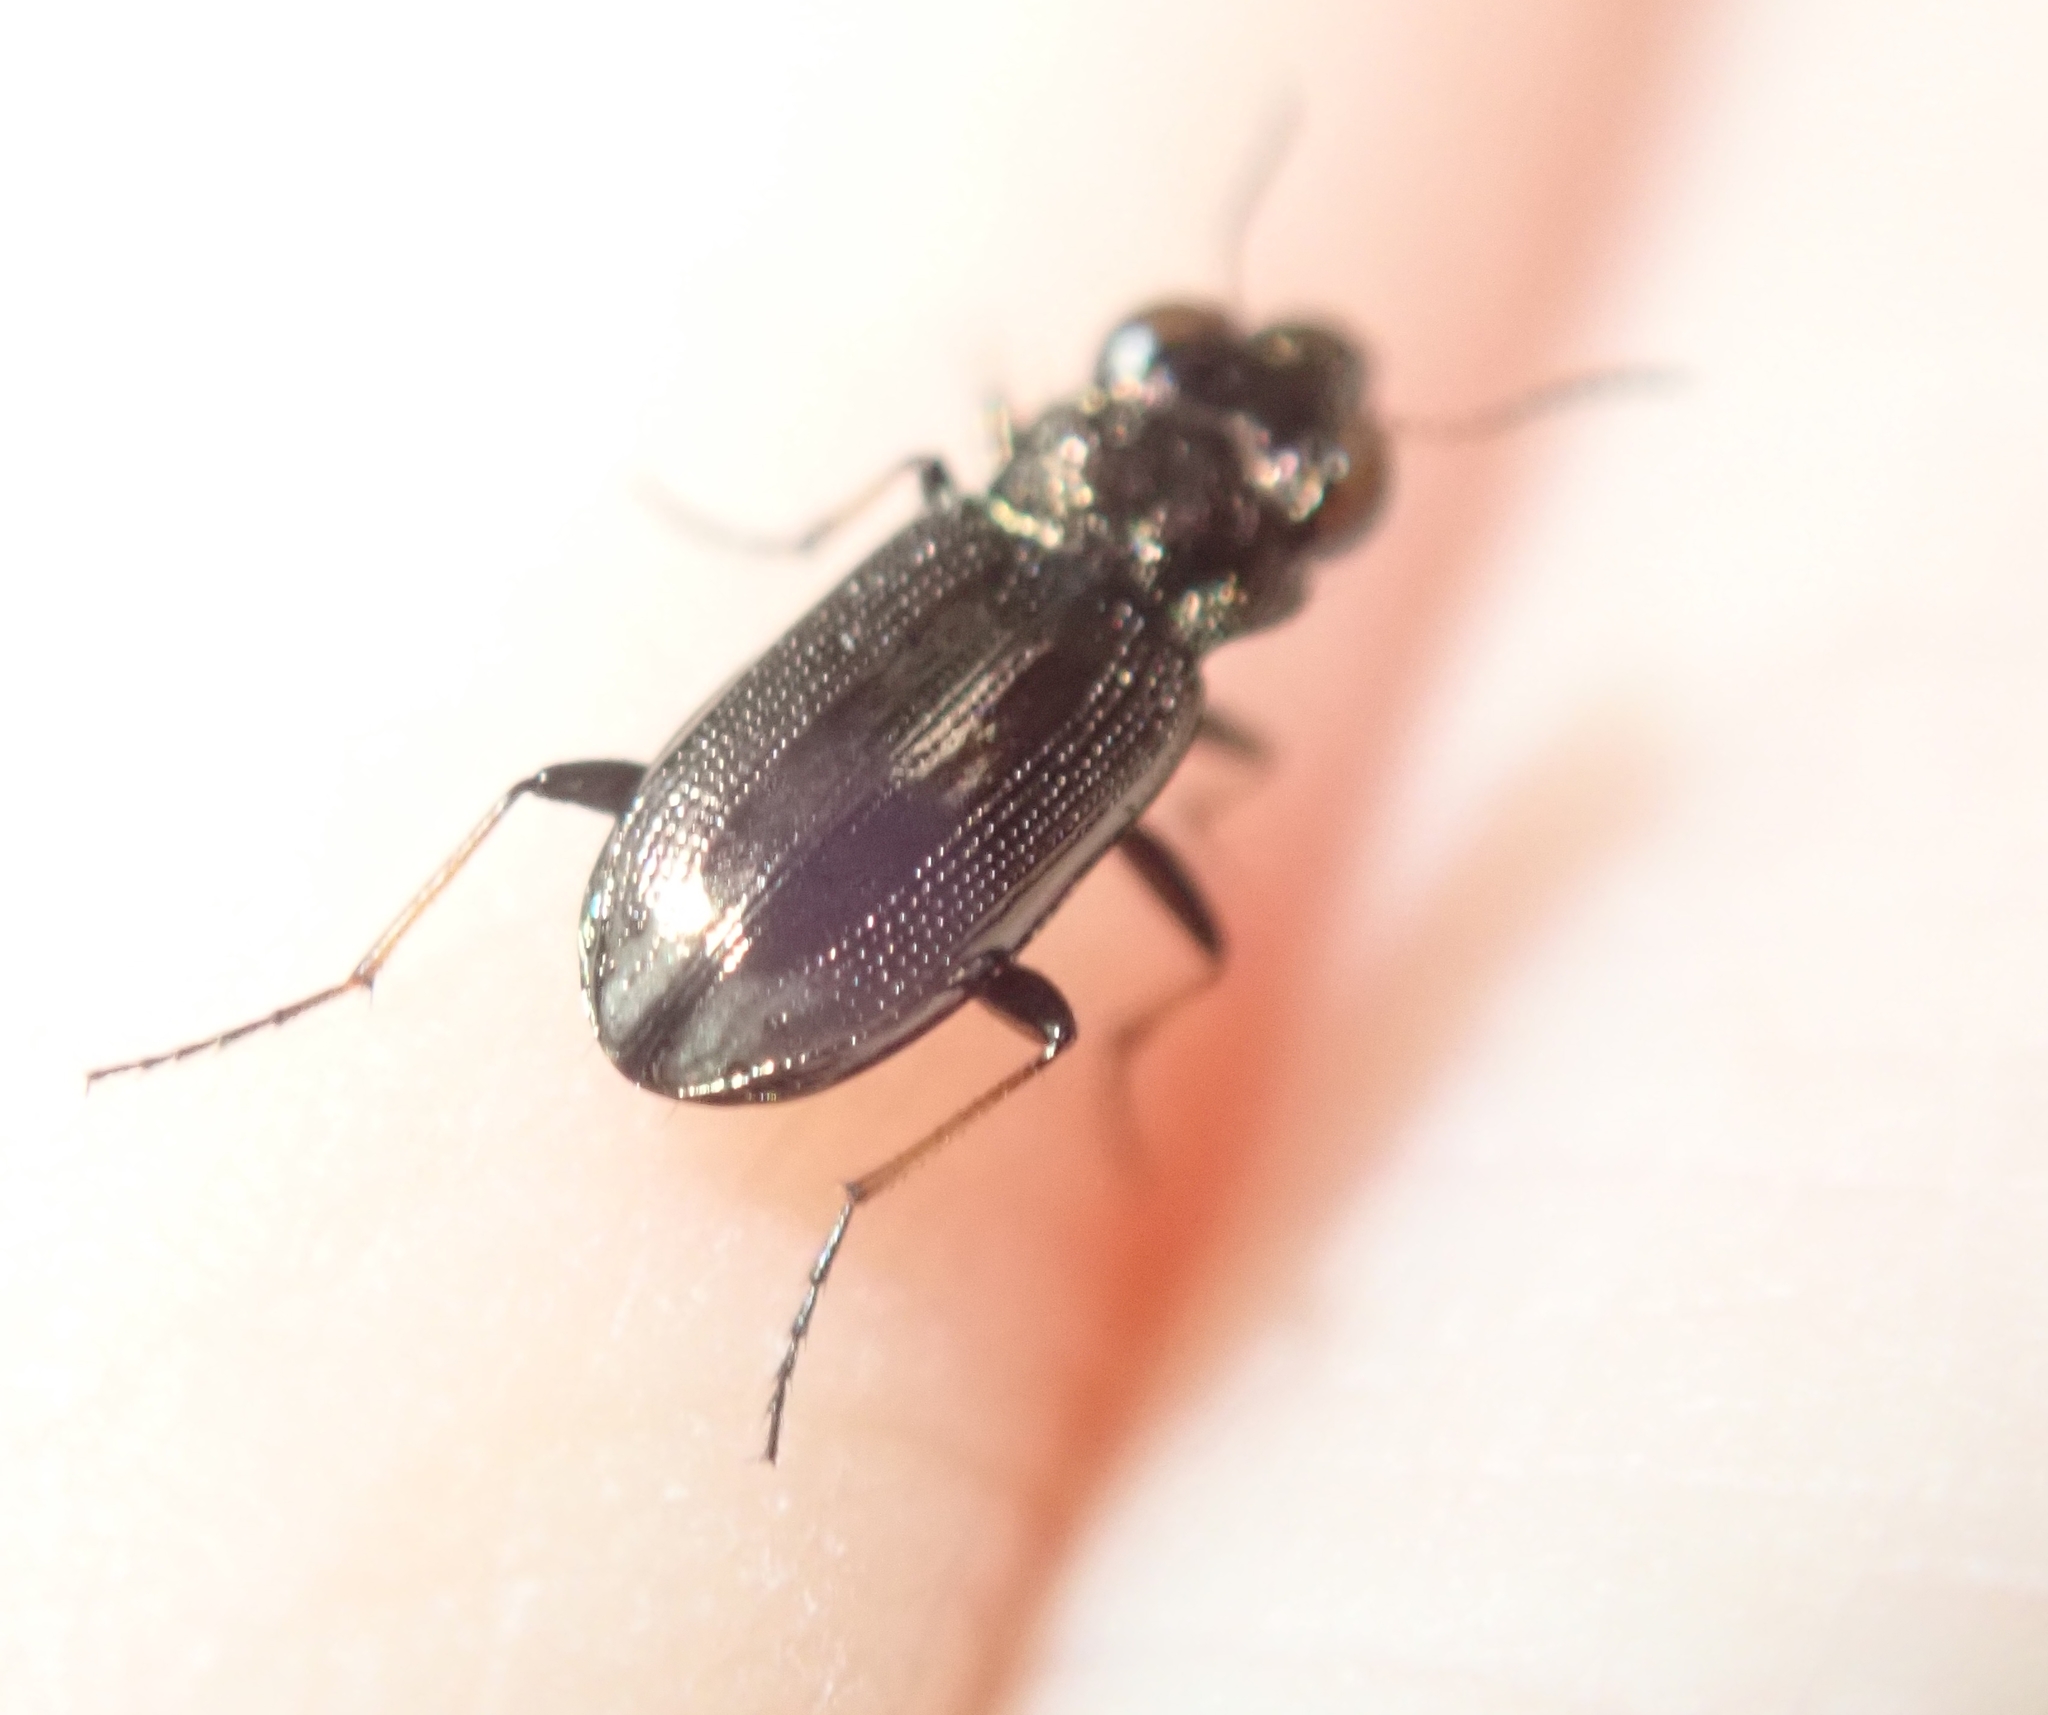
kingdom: Animalia
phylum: Arthropoda
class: Insecta
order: Coleoptera
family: Carabidae
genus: Notiophilus
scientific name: Notiophilus biguttatus
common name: Spotted gazelle beetle
